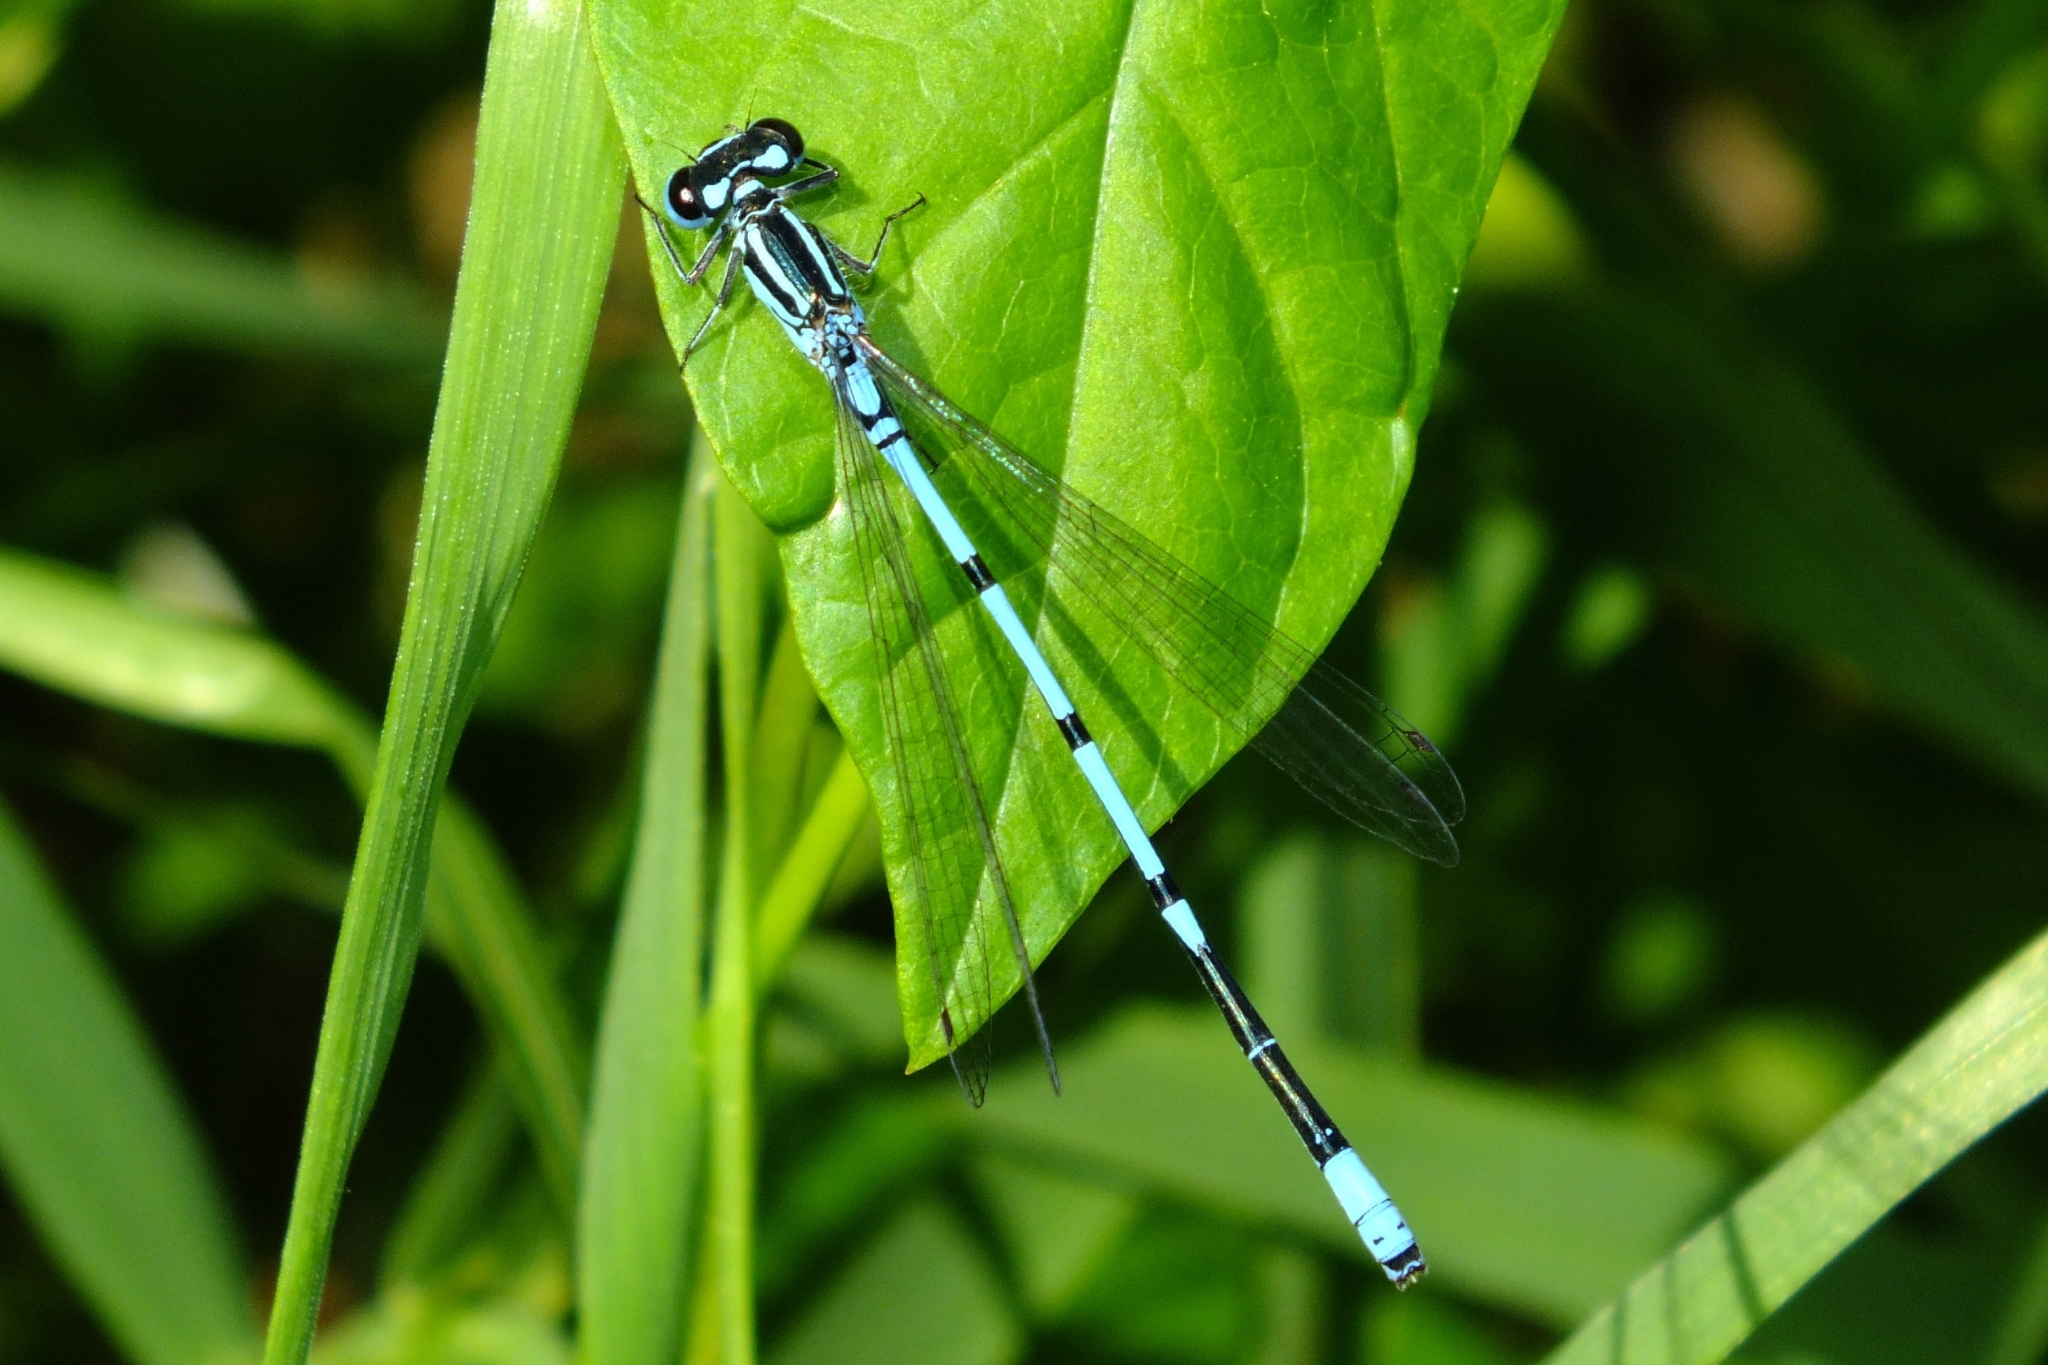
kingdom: Animalia
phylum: Arthropoda
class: Insecta
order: Odonata
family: Coenagrionidae
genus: Coenagrion
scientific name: Coenagrion puella
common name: Azure damselfly
